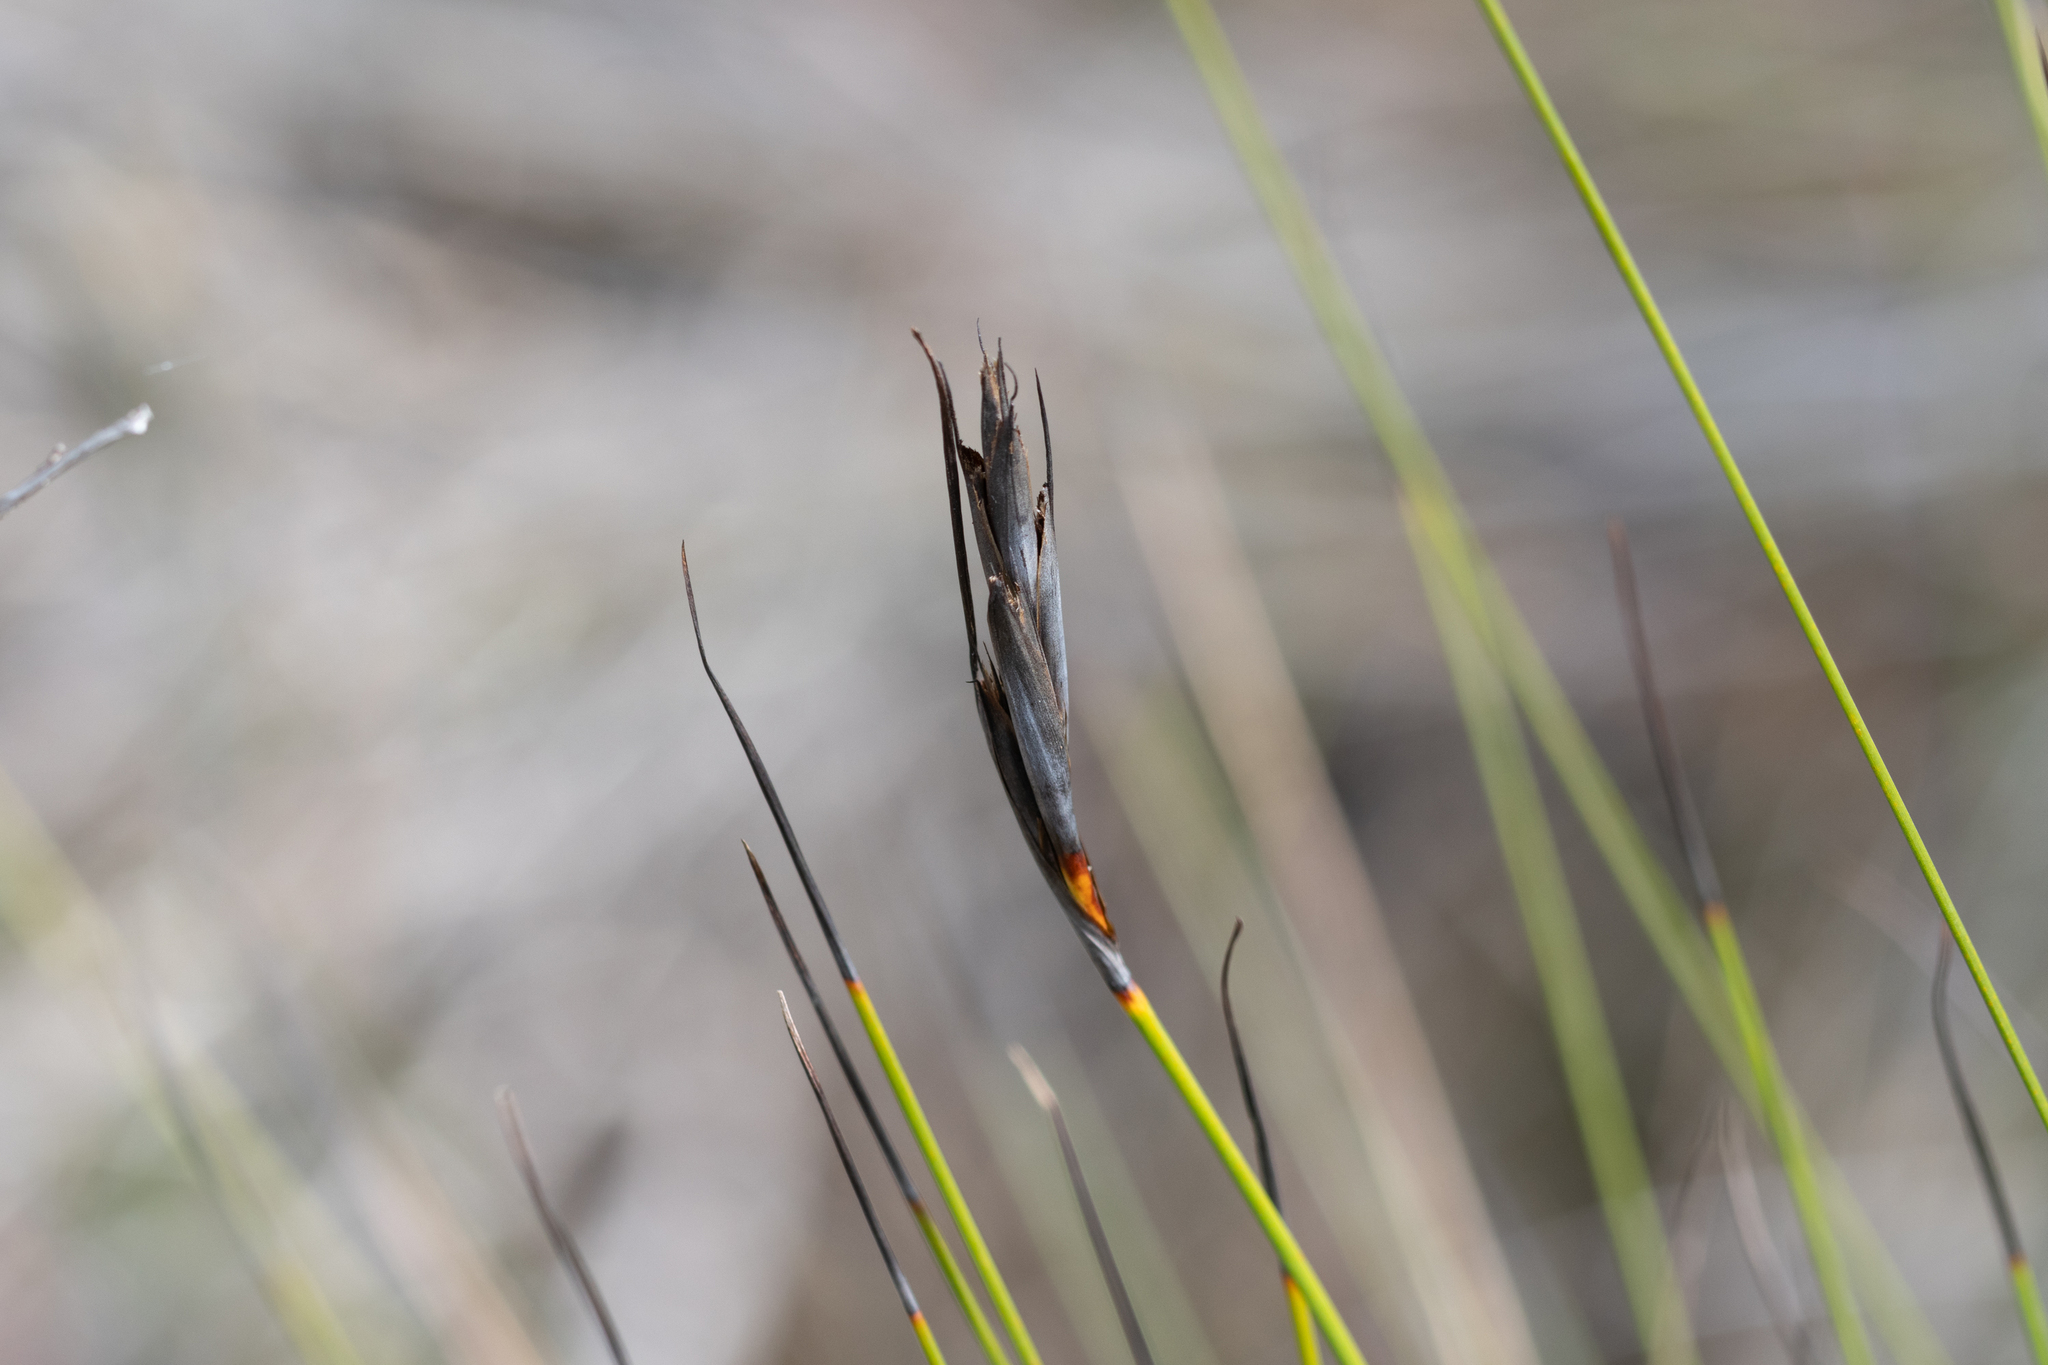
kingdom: Plantae
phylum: Tracheophyta
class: Liliopsida
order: Poales
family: Cyperaceae
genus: Lepidosperma
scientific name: Lepidosperma carphoides
